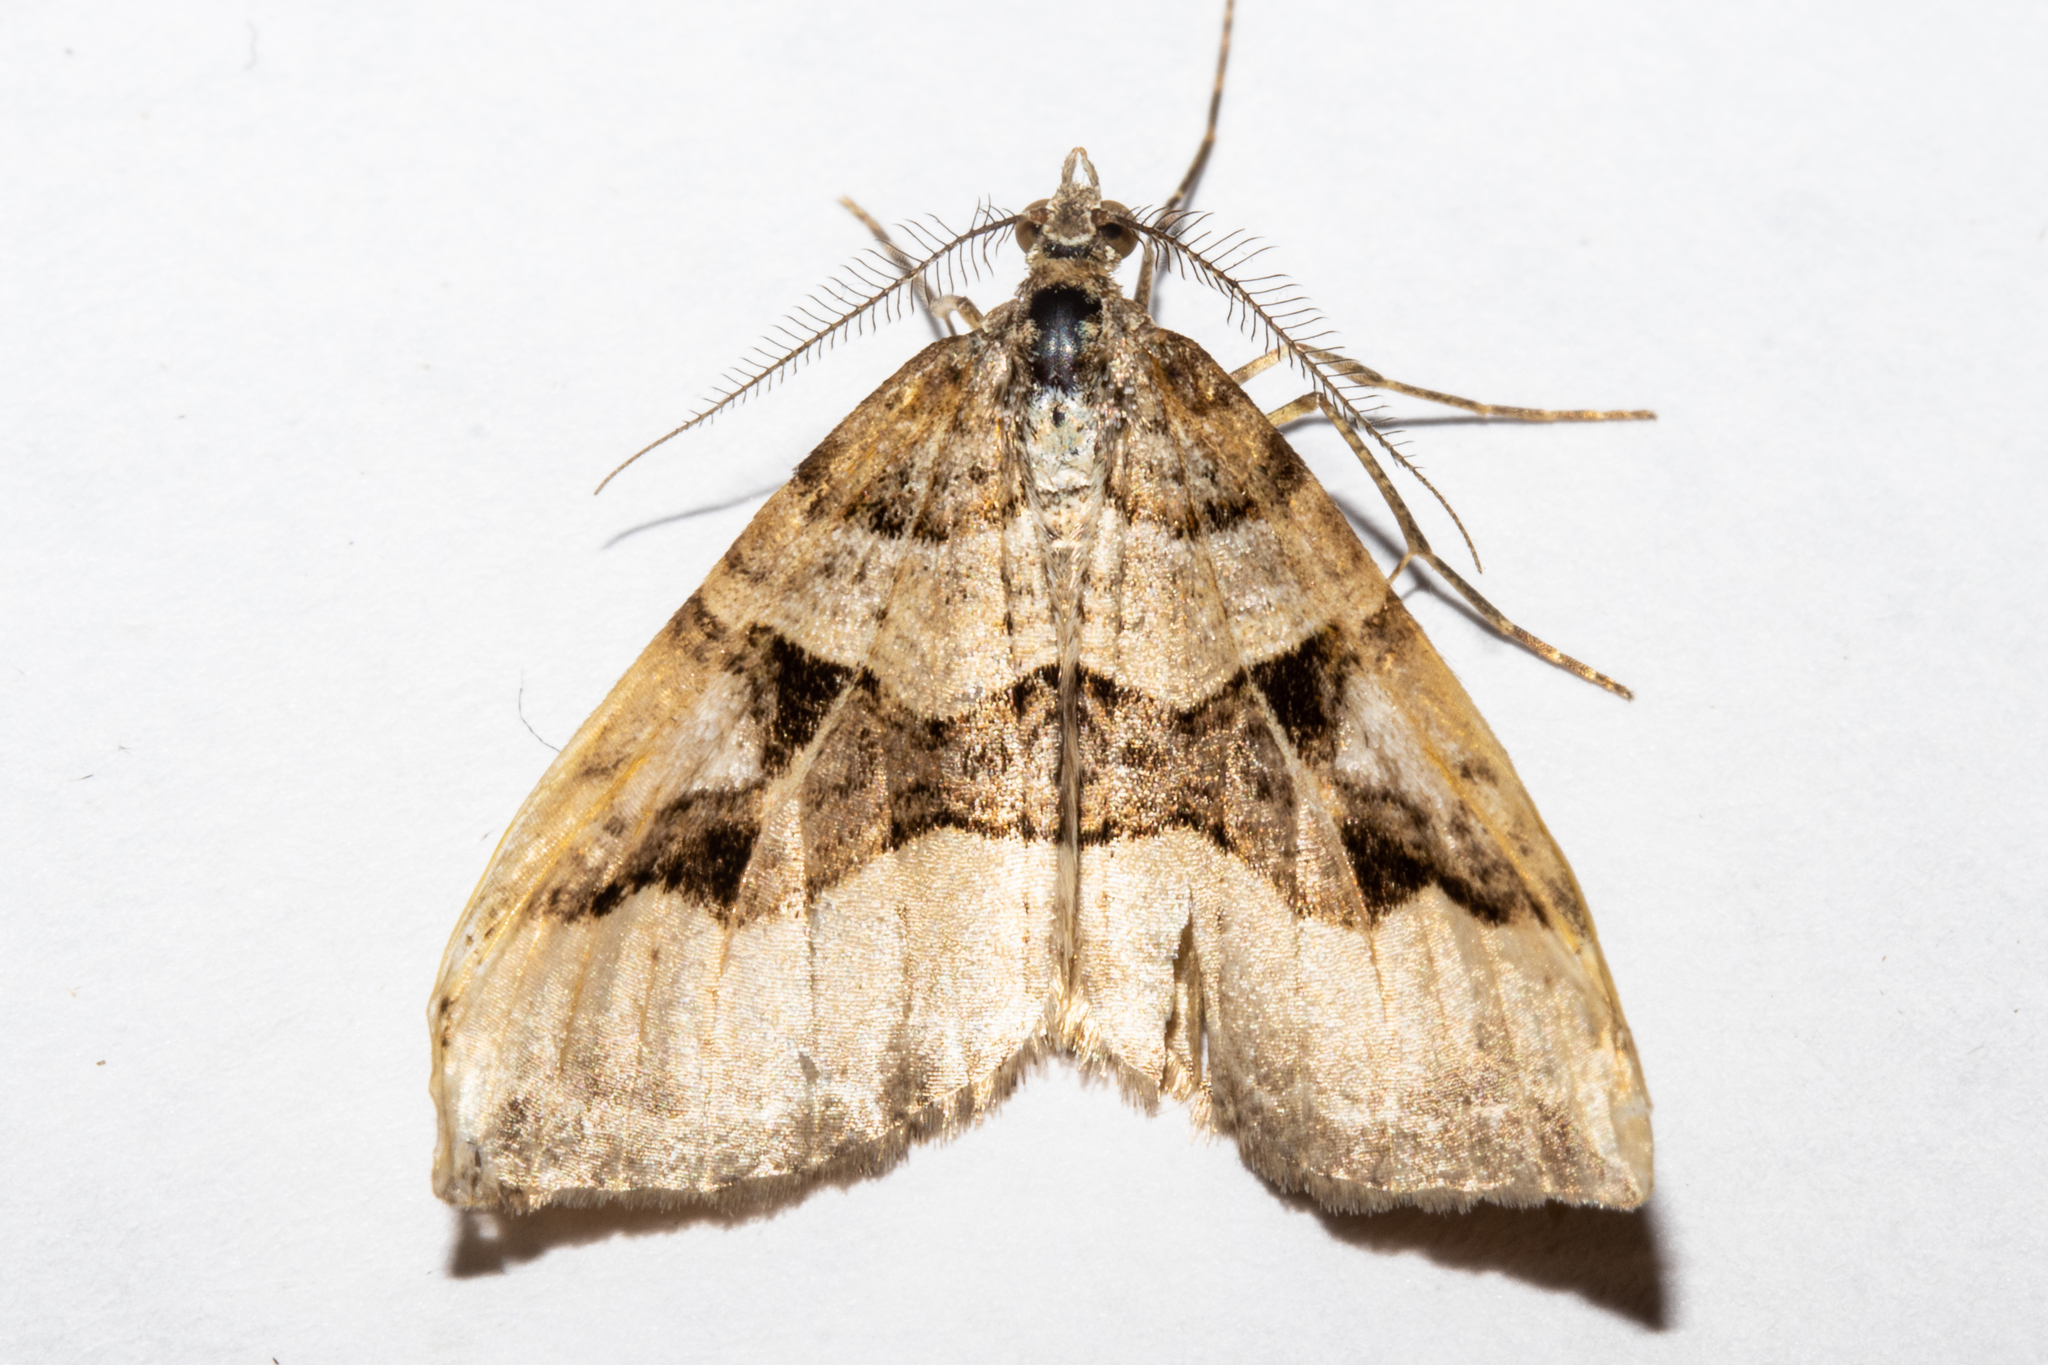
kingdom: Animalia
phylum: Arthropoda
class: Insecta
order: Lepidoptera
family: Geometridae
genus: Xanthorhoe
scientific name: Xanthorhoe semifissata
